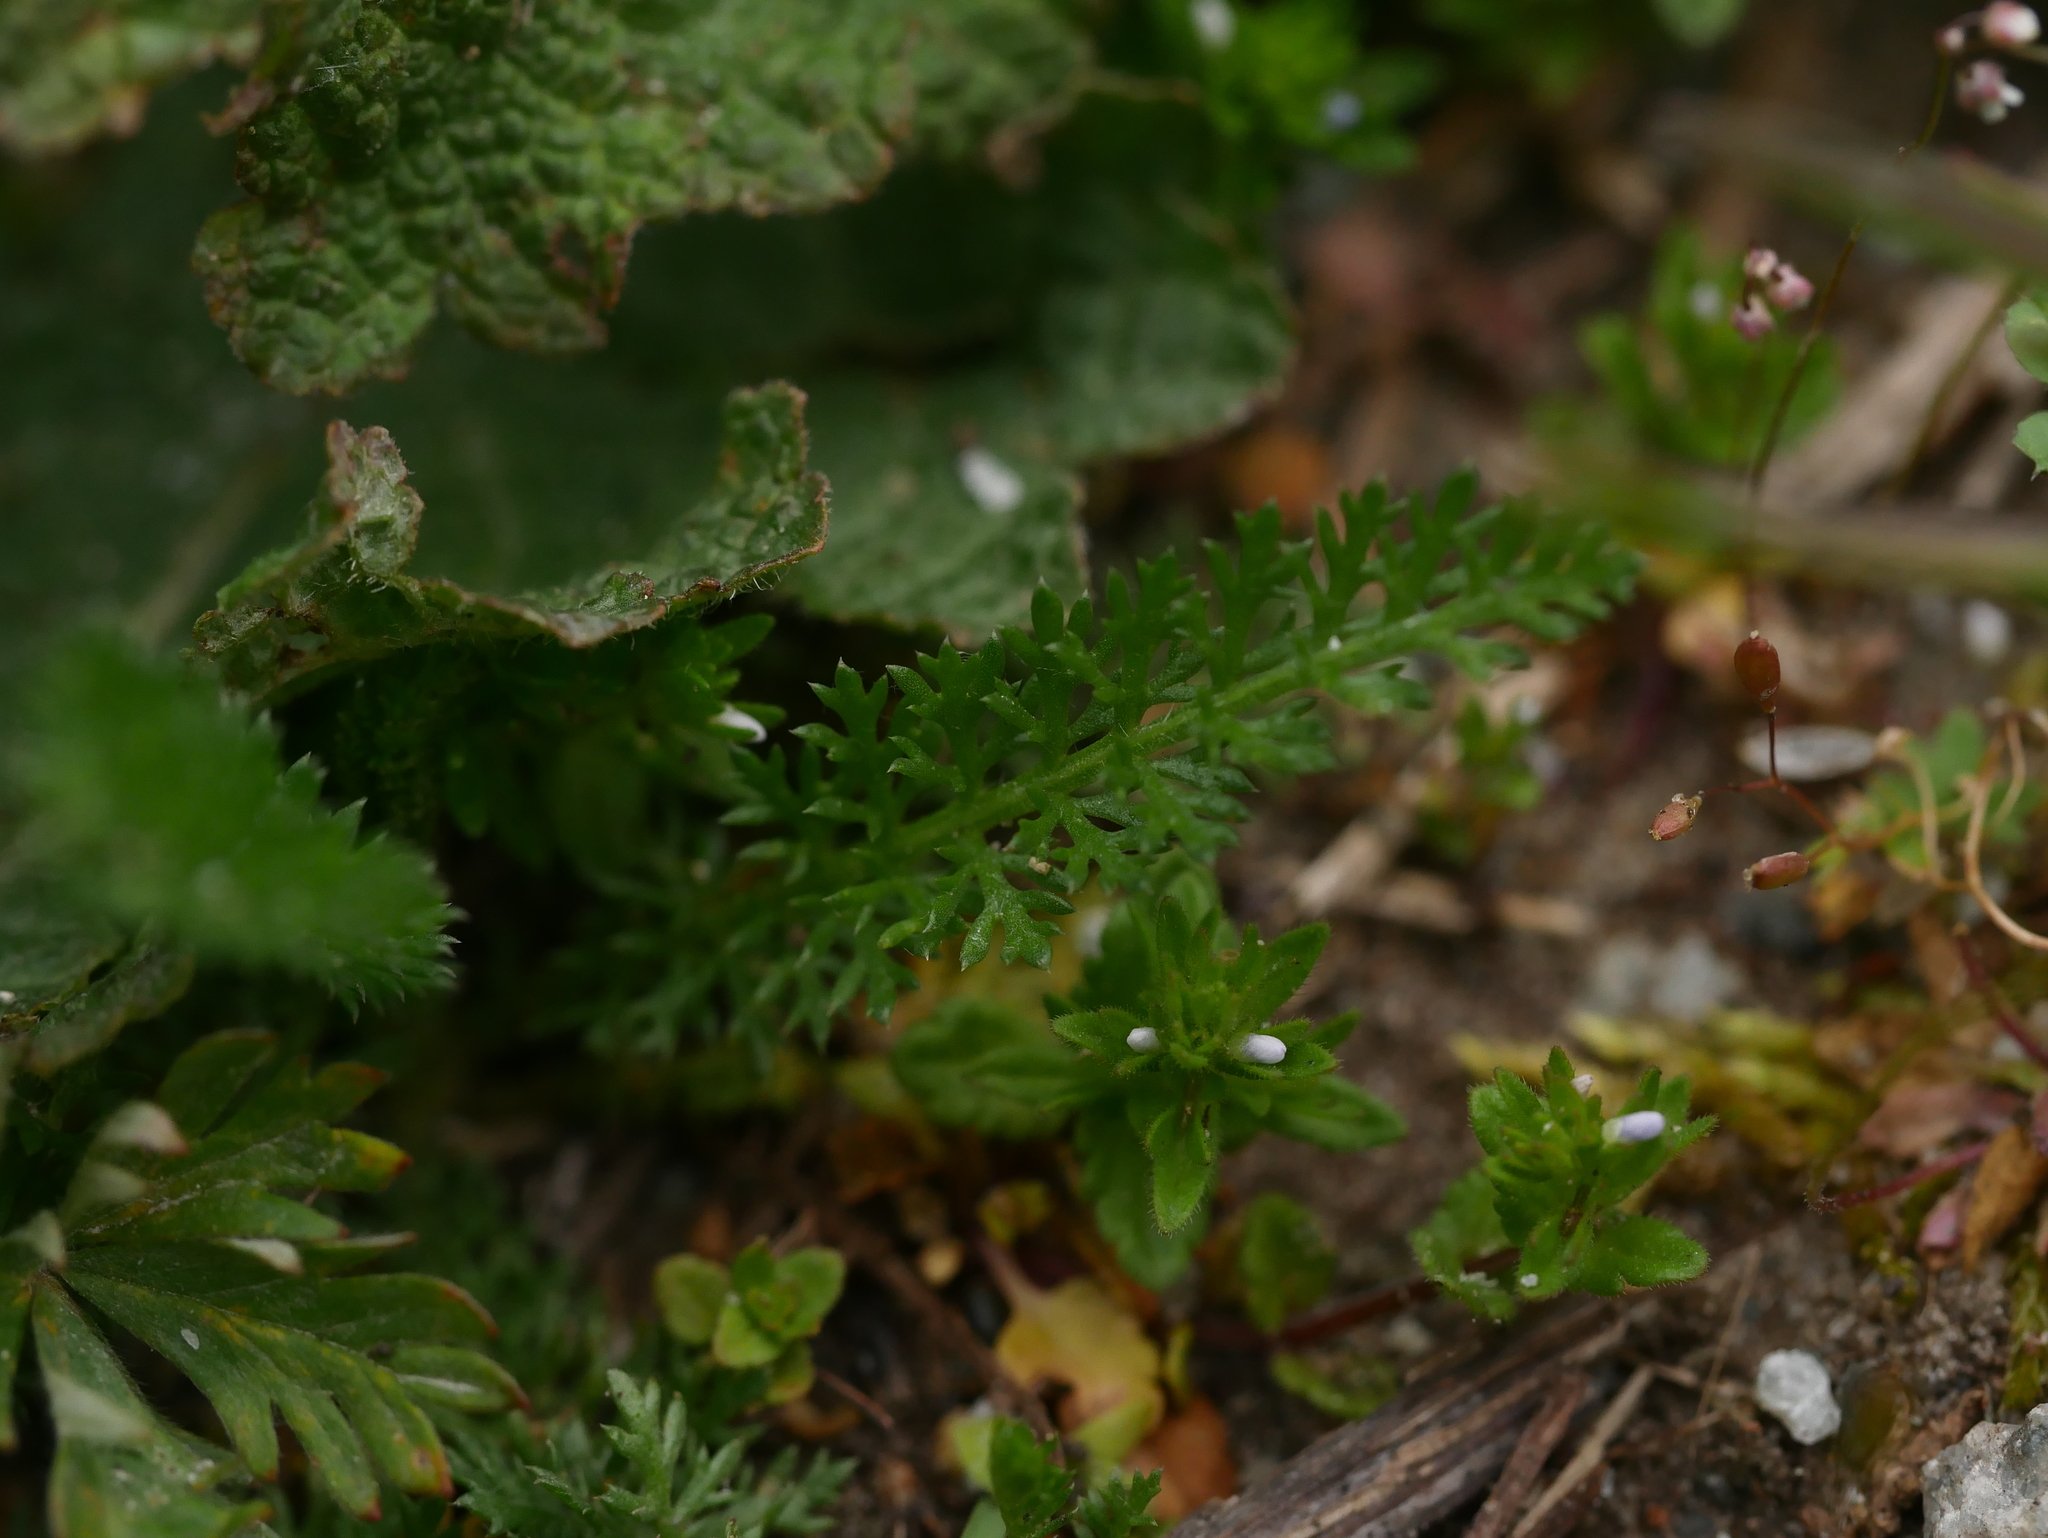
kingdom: Plantae
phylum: Tracheophyta
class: Magnoliopsida
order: Asterales
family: Asteraceae
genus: Achillea
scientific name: Achillea millefolium
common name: Yarrow
